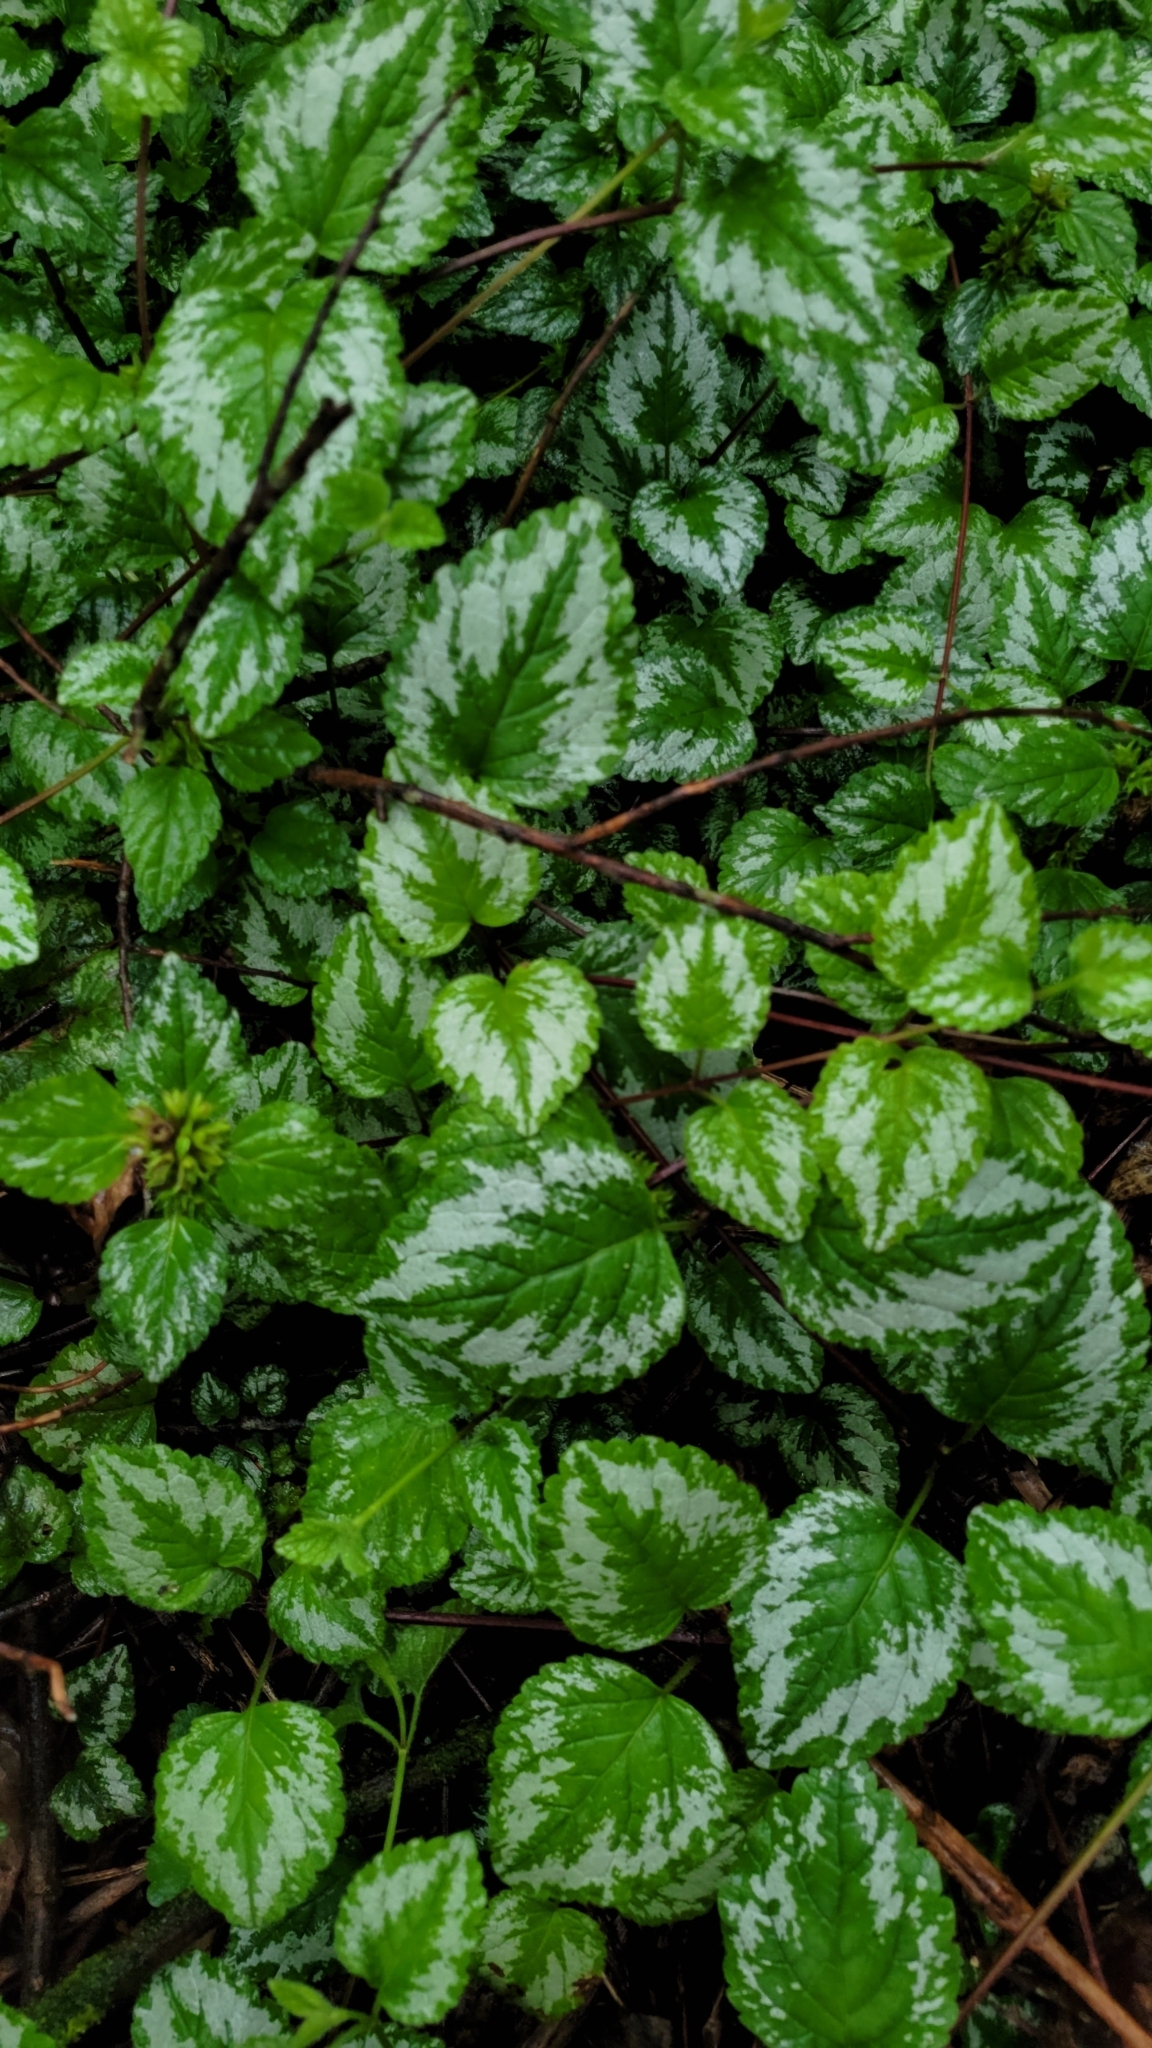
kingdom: Plantae
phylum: Tracheophyta
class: Magnoliopsida
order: Lamiales
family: Lamiaceae
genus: Lamium
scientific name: Lamium galeobdolon
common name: Yellow archangel
